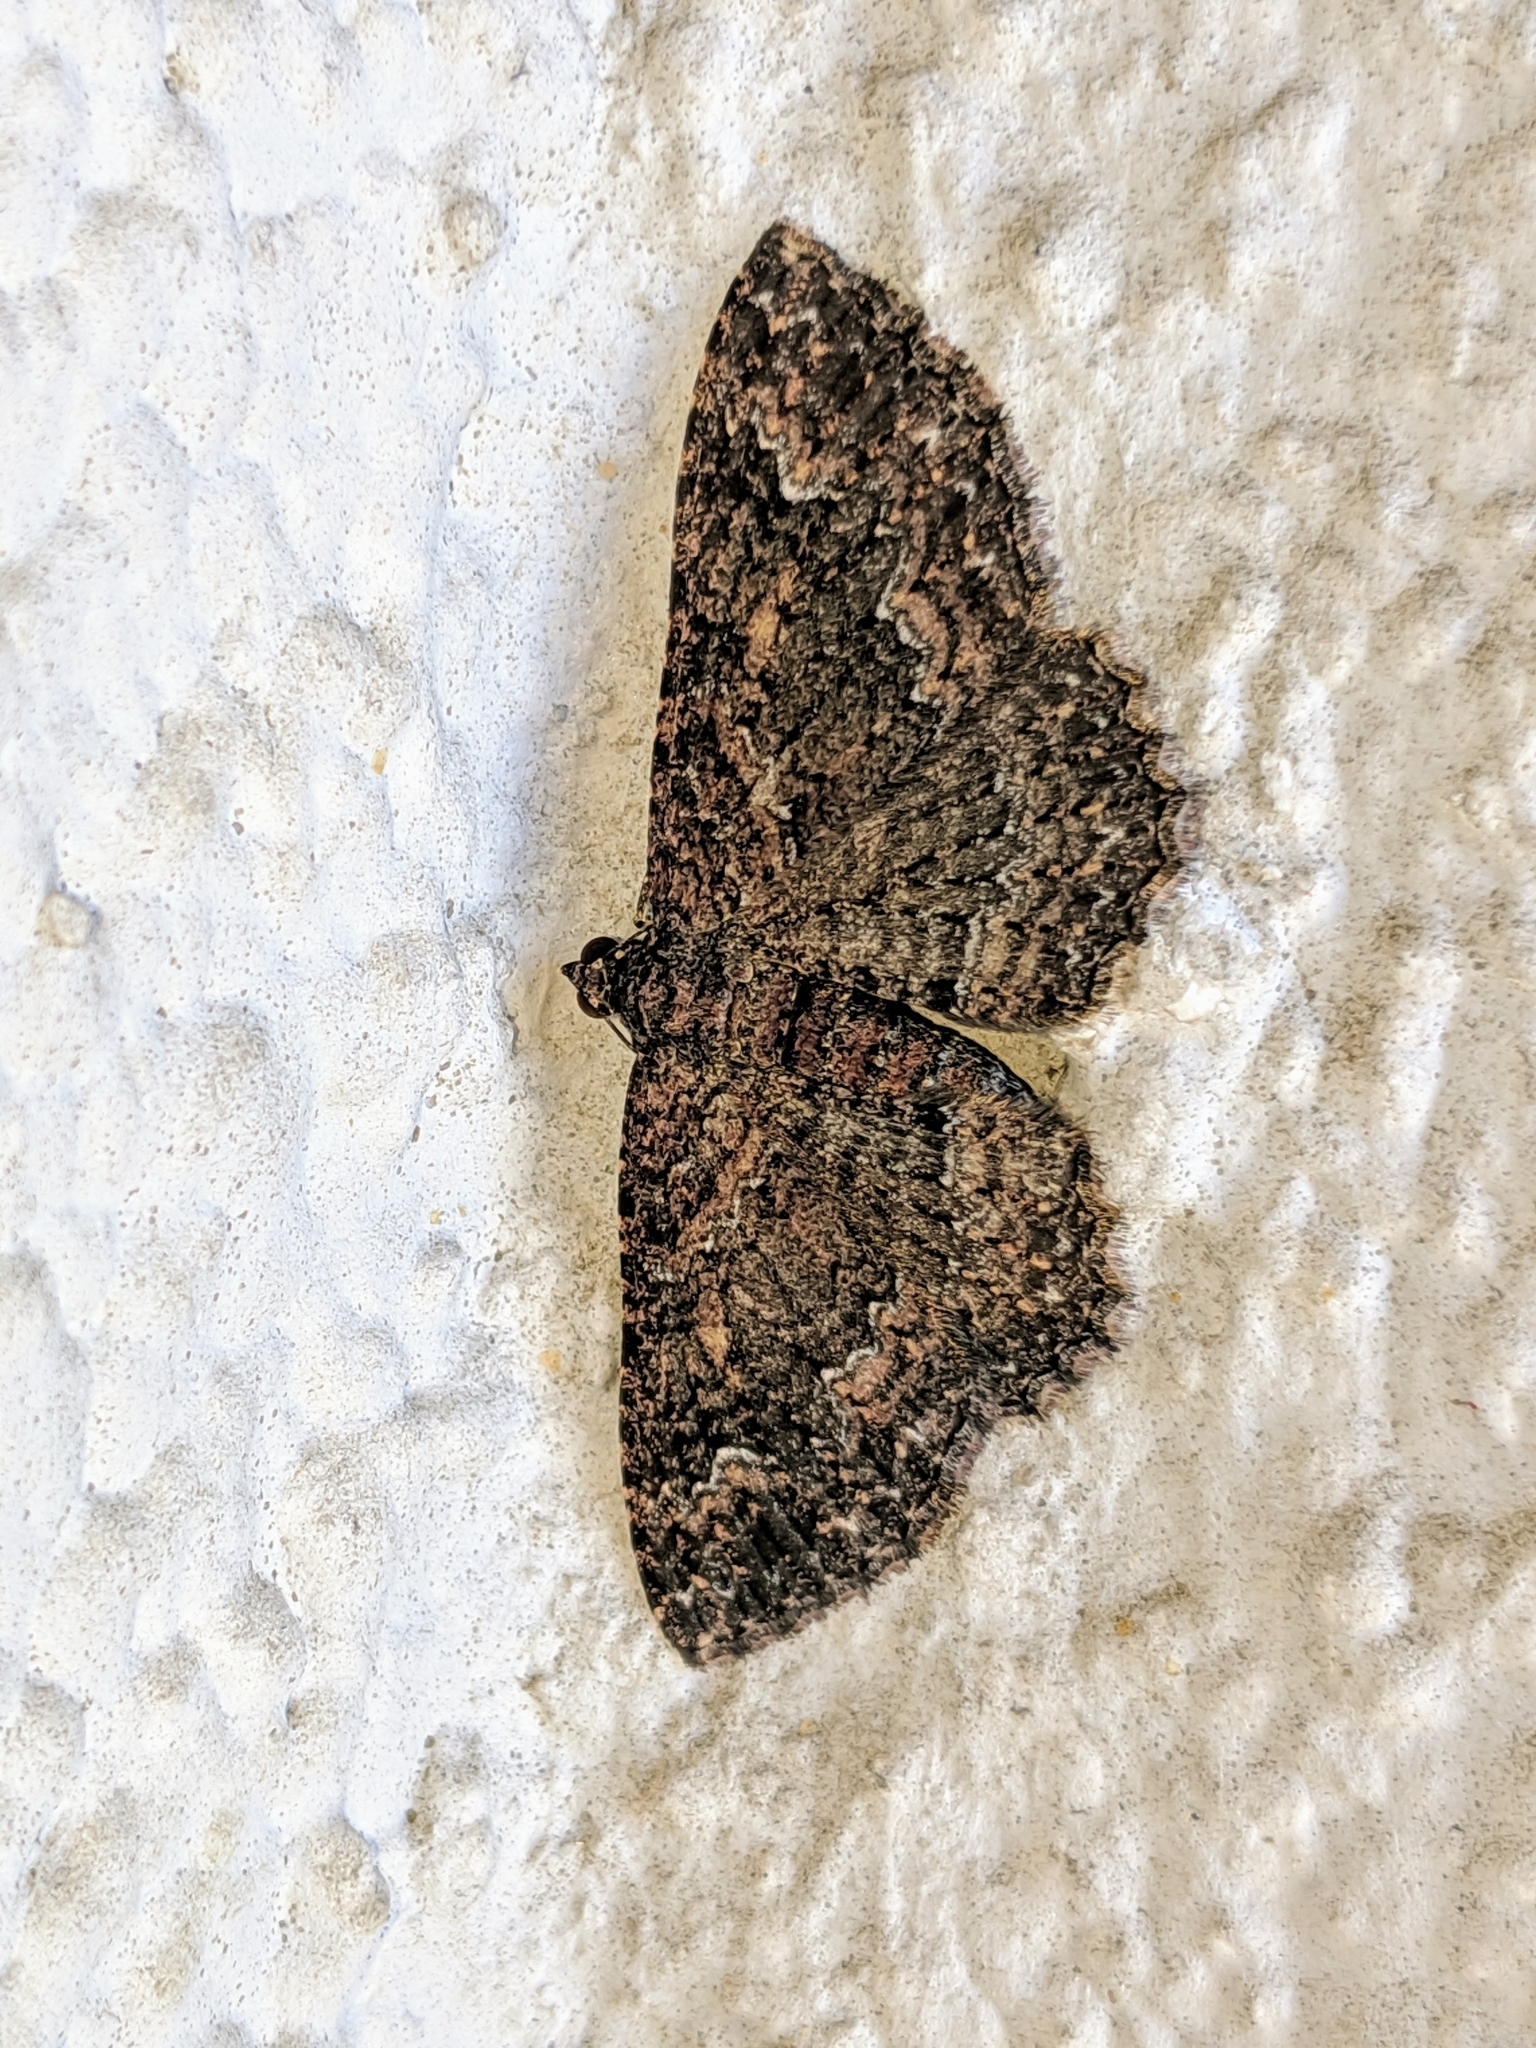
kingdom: Animalia
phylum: Arthropoda
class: Insecta
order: Lepidoptera
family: Geometridae
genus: Disclisioprocta
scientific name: Disclisioprocta stellata
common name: Somber carpet
